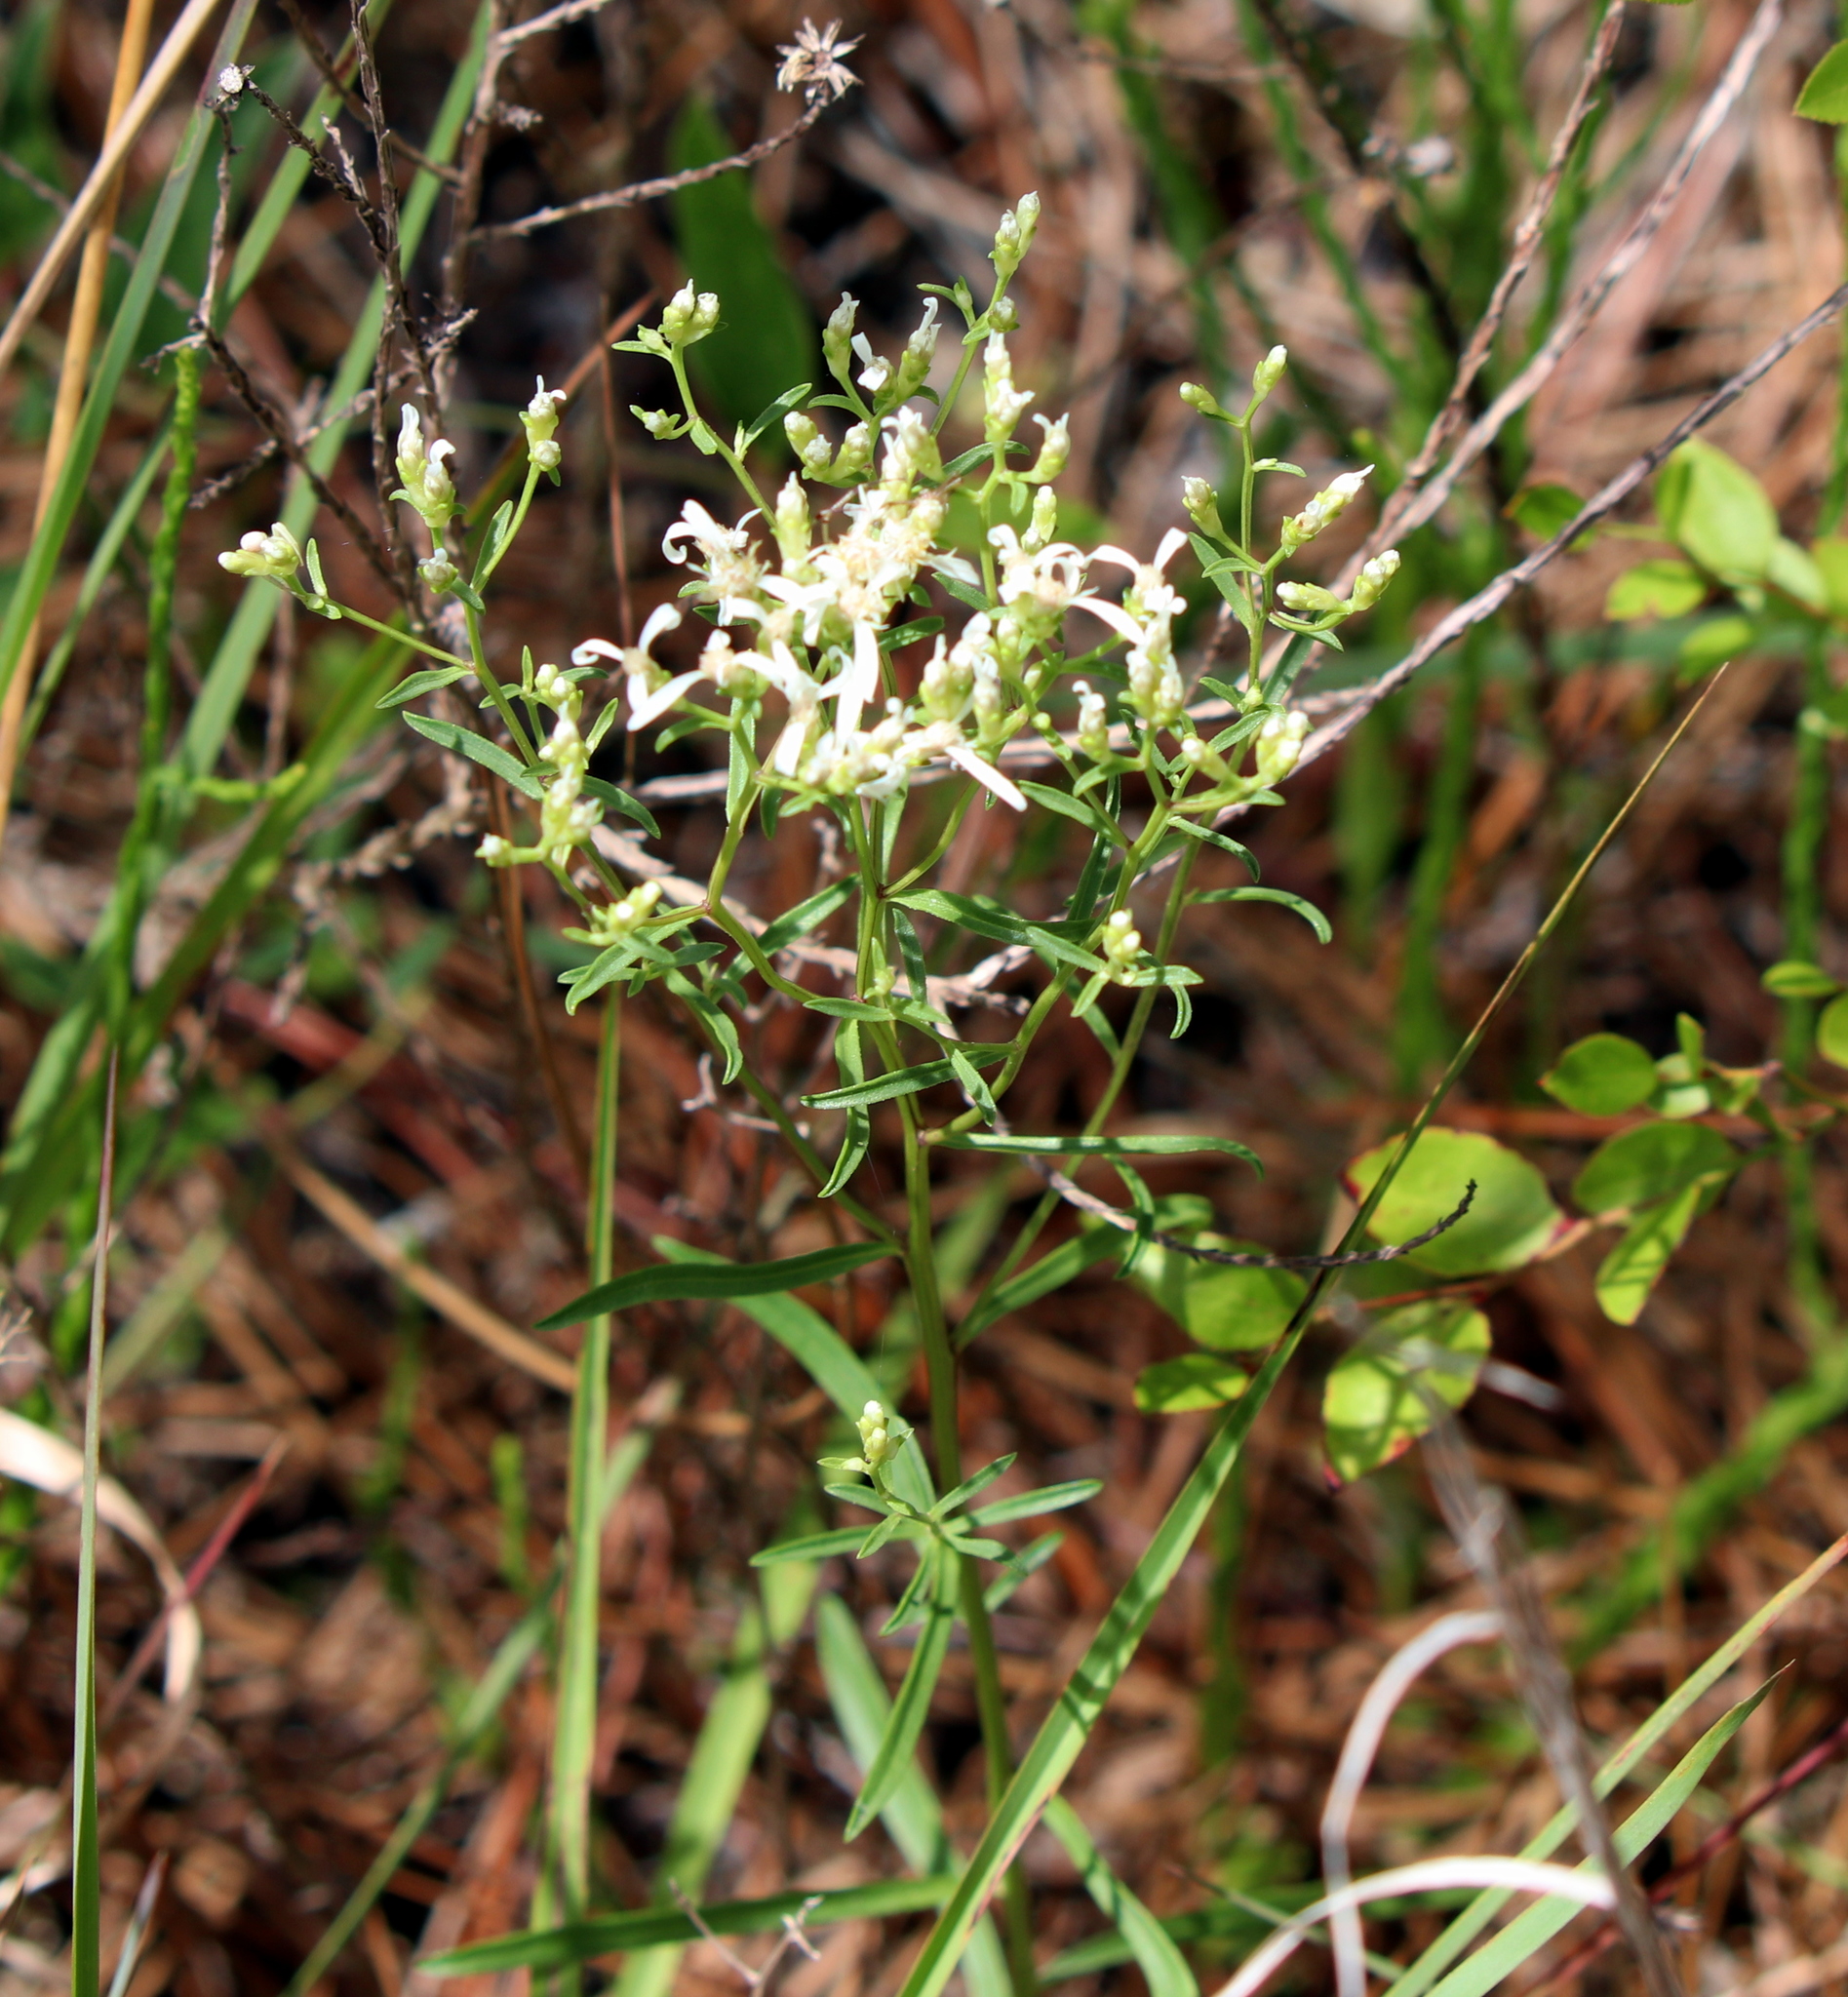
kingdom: Plantae
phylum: Tracheophyta
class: Magnoliopsida
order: Asterales
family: Asteraceae
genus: Sericocarpus
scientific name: Sericocarpus linifolius
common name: Narrow-leaf aster
